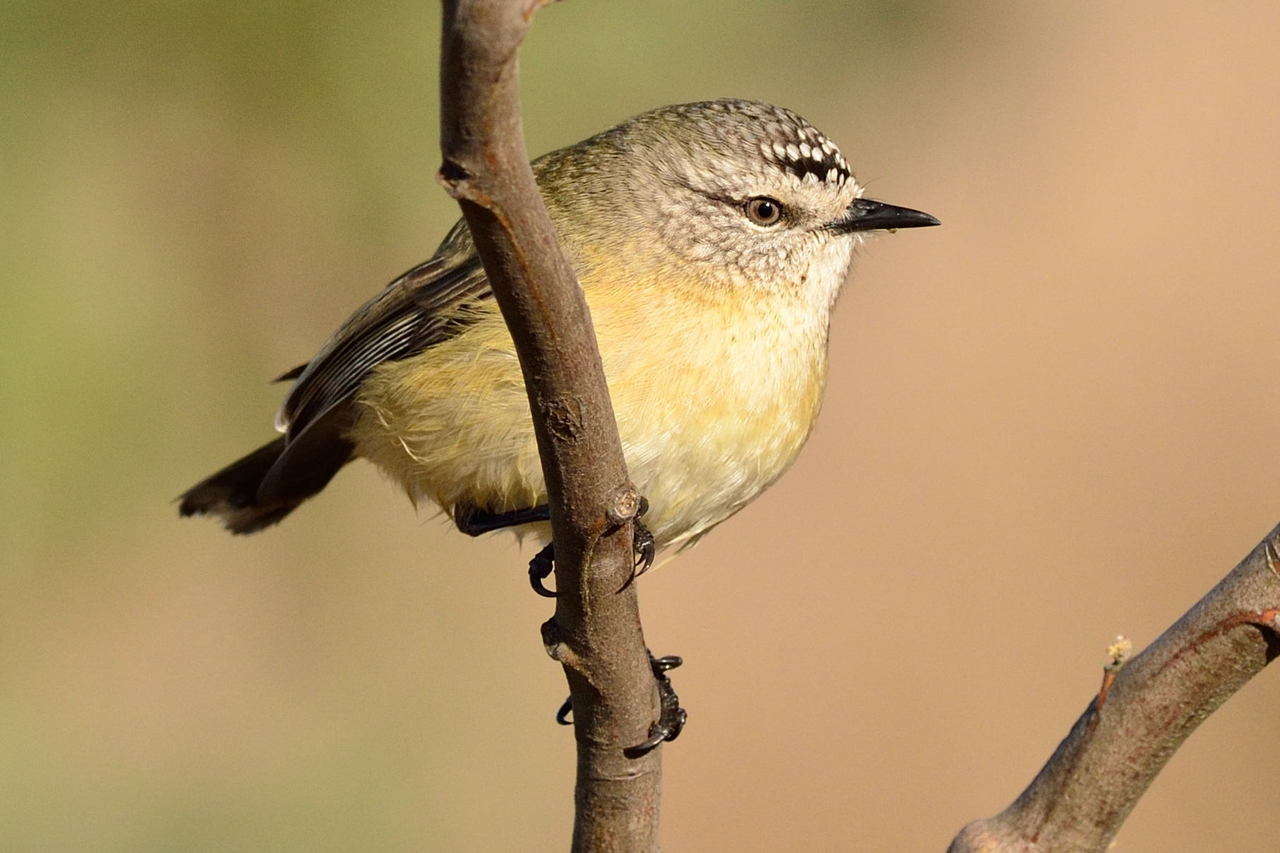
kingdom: Animalia
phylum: Chordata
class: Aves
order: Passeriformes
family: Acanthizidae
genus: Acanthiza
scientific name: Acanthiza chrysorrhoa
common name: Yellow-rumped thornbill
